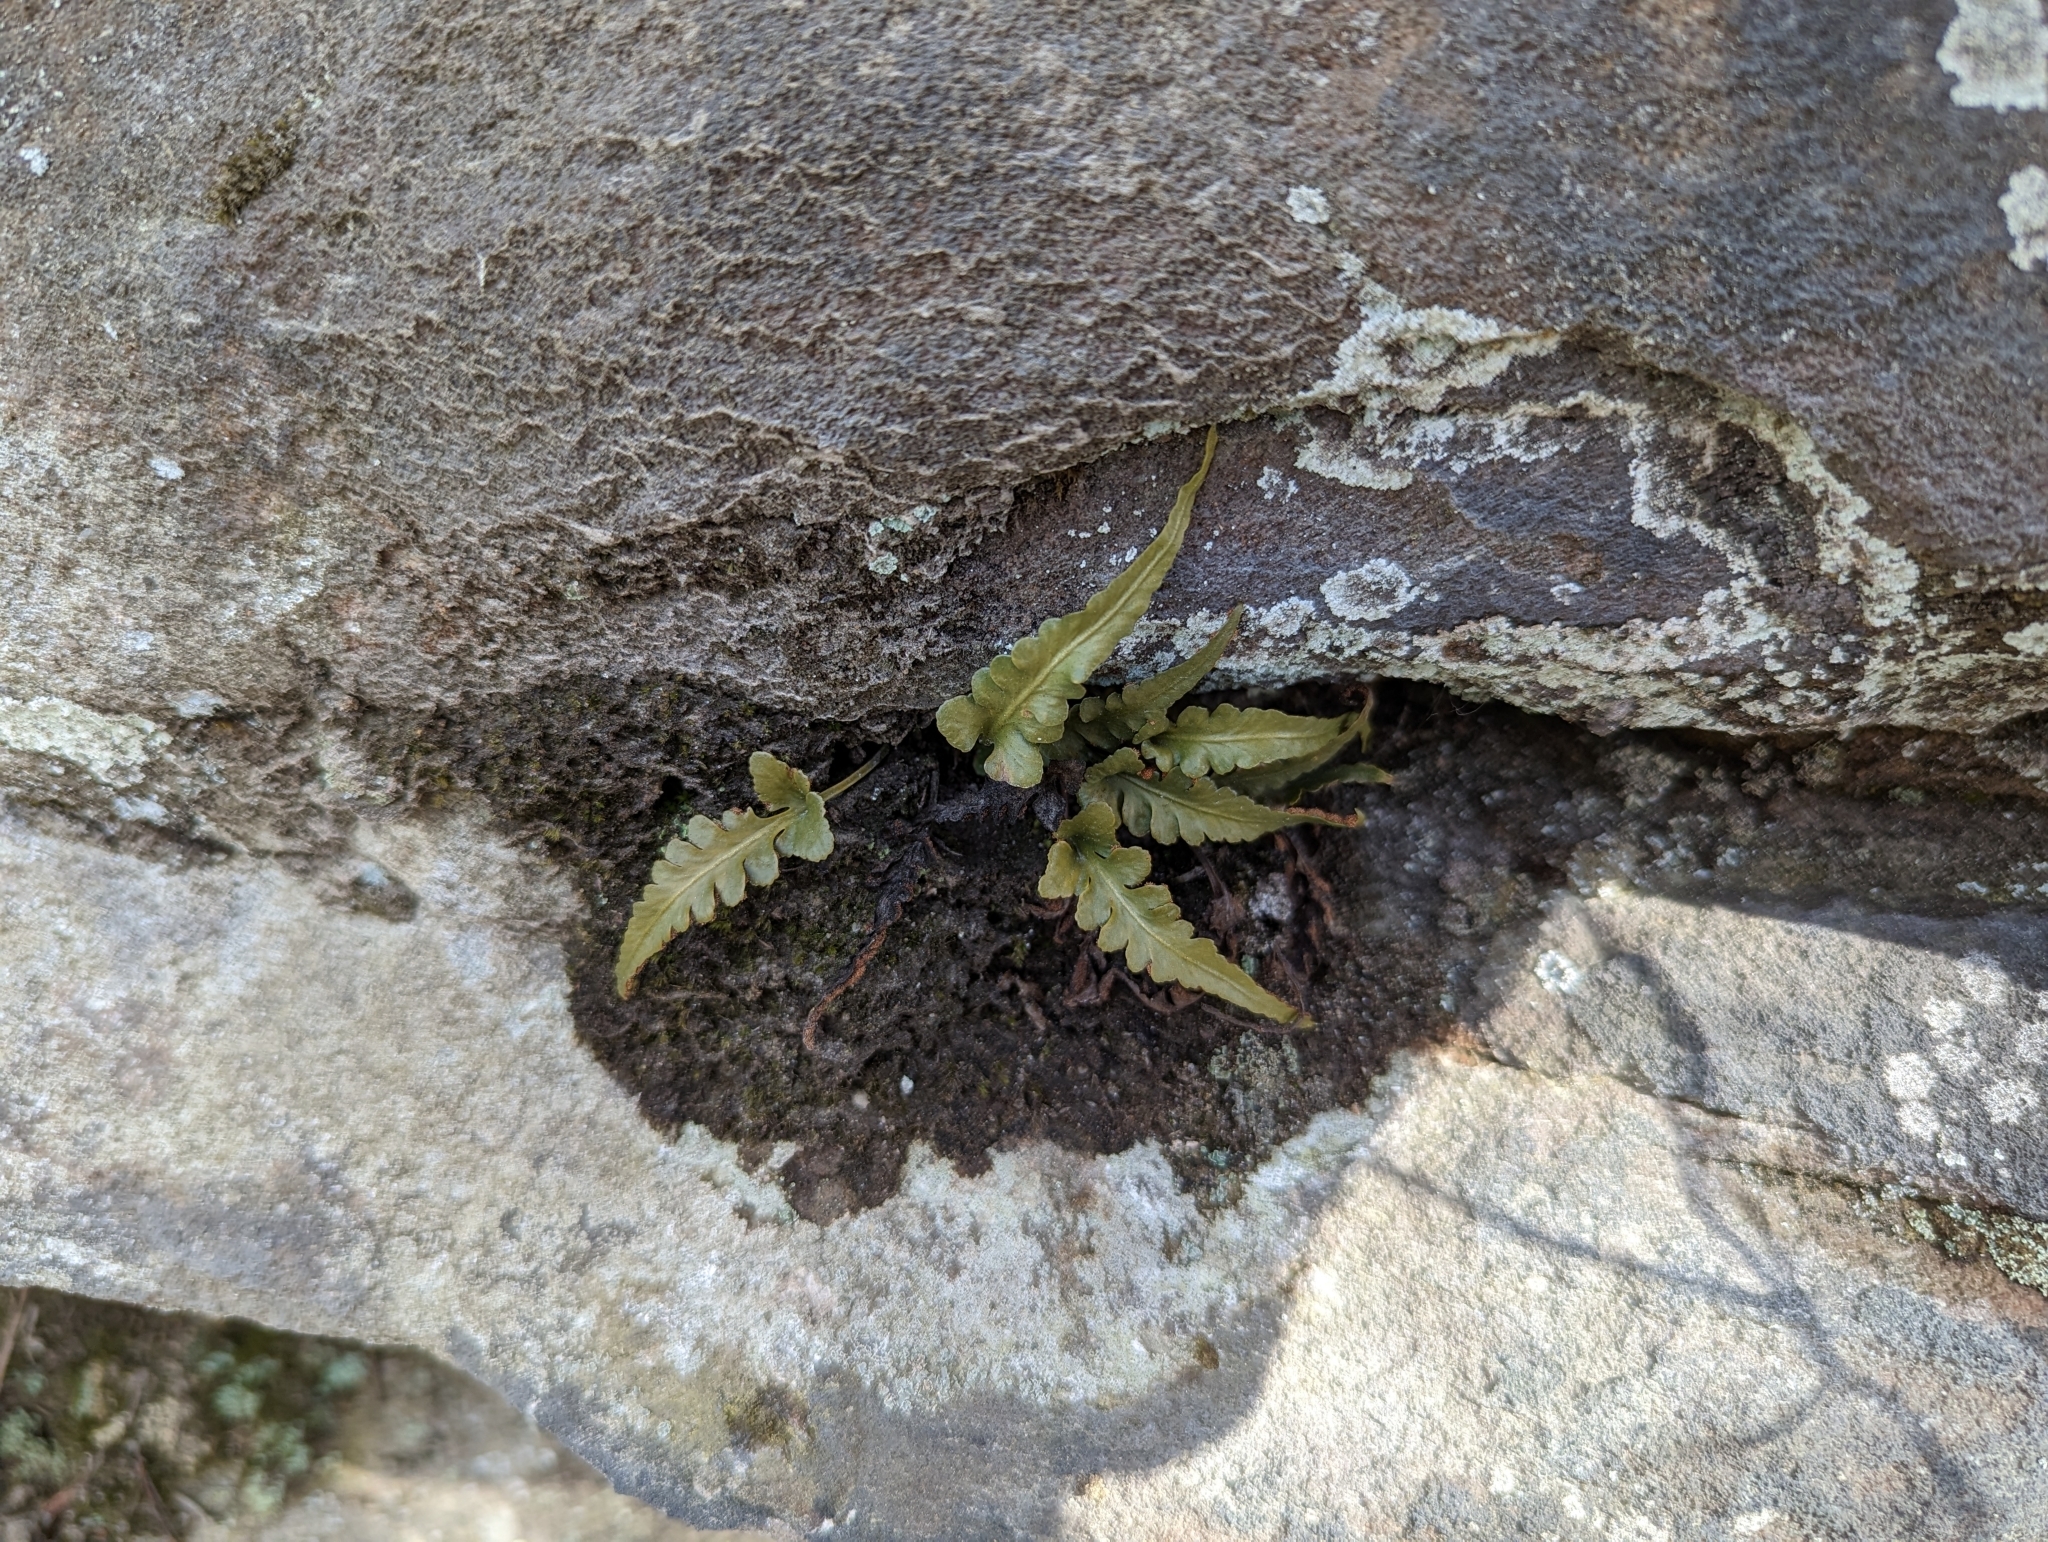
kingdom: Plantae
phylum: Tracheophyta
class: Polypodiopsida
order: Polypodiales
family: Aspleniaceae
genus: Asplenium
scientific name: Asplenium pinnatifidum
